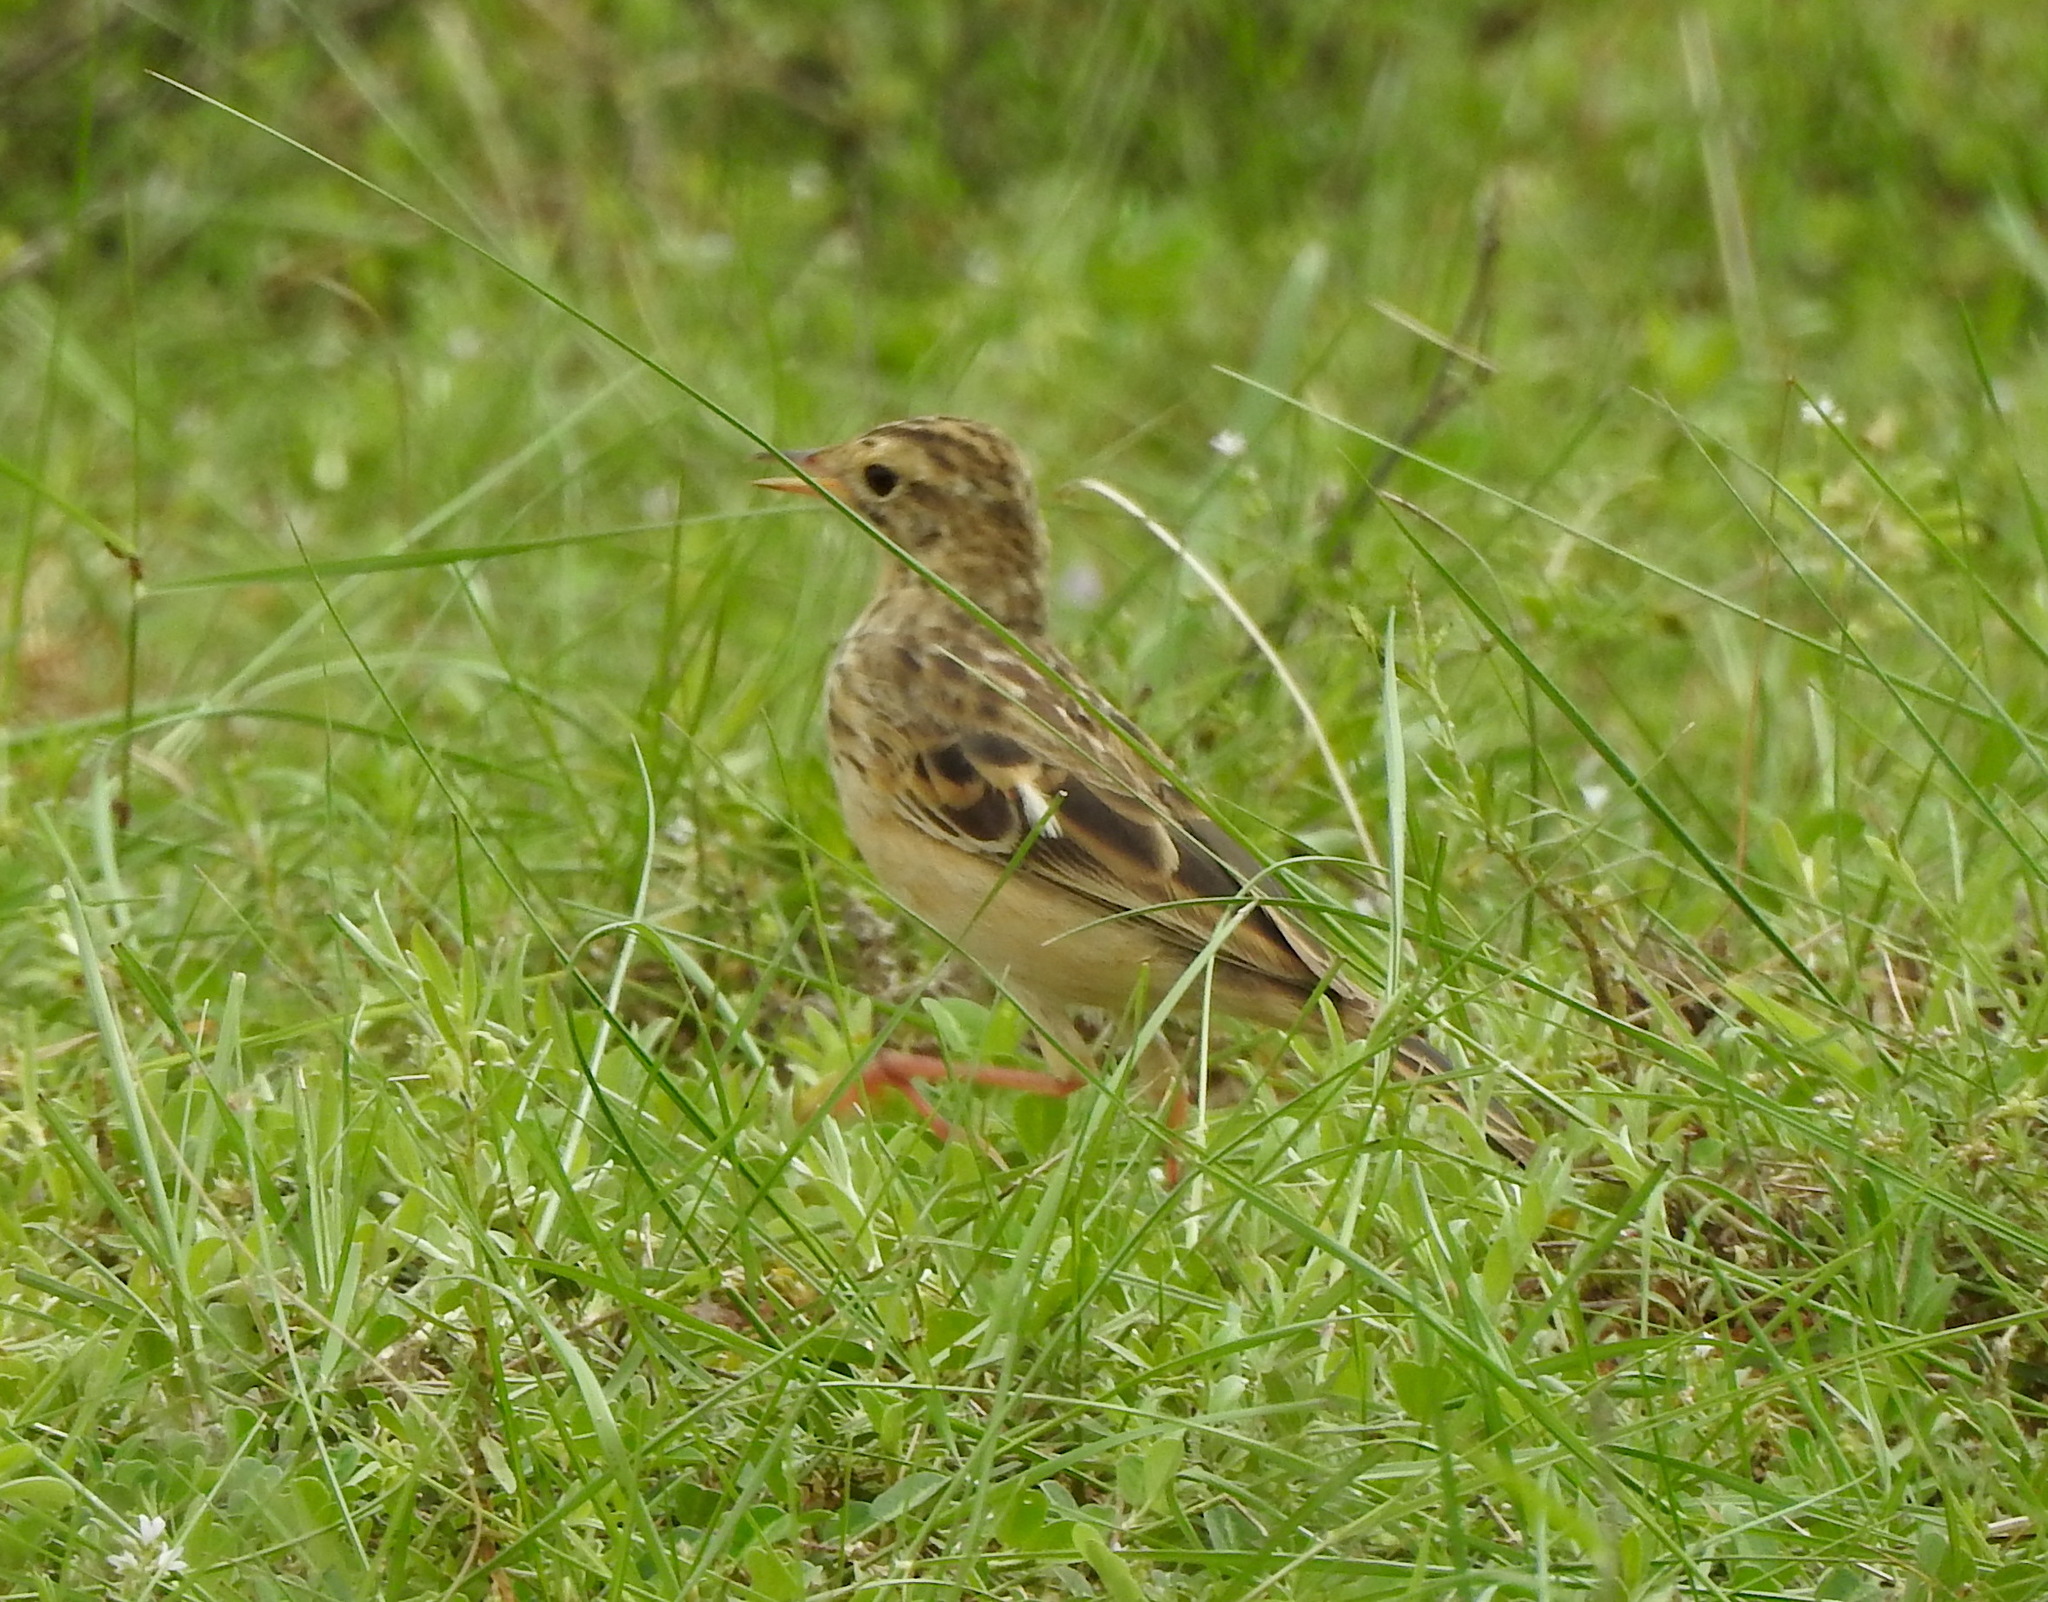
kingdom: Animalia
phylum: Chordata
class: Aves
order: Passeriformes
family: Motacillidae
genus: Anthus
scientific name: Anthus rufulus
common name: Paddyfield pipit
